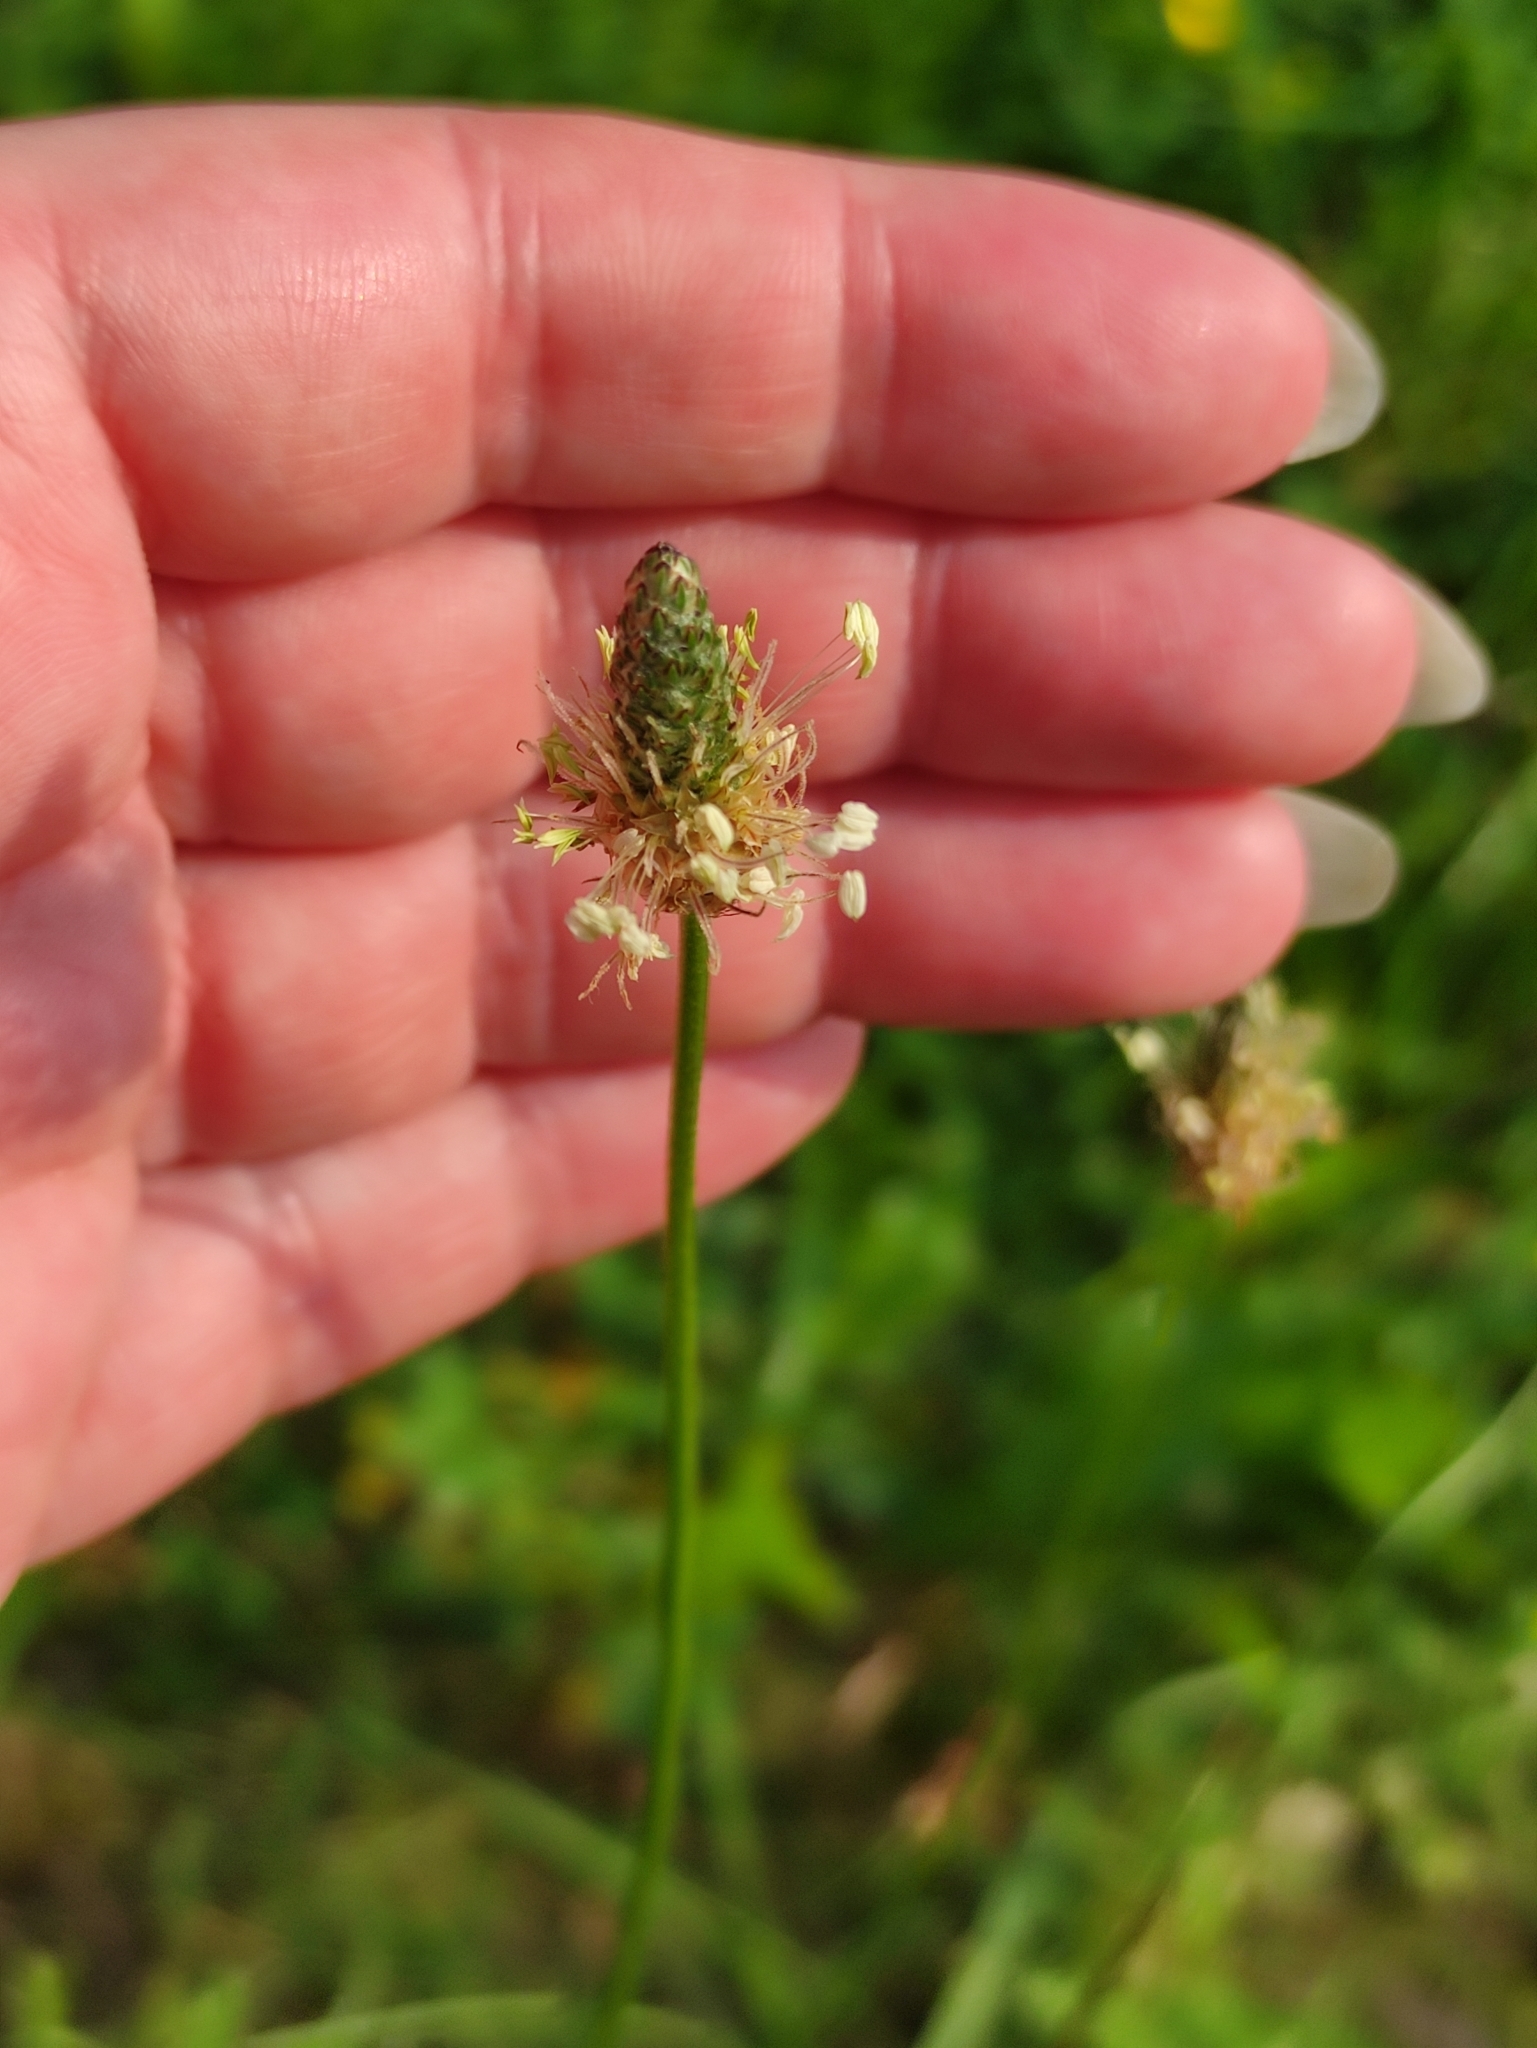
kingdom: Plantae
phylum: Tracheophyta
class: Magnoliopsida
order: Lamiales
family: Plantaginaceae
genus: Plantago
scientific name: Plantago lanceolata
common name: Ribwort plantain
